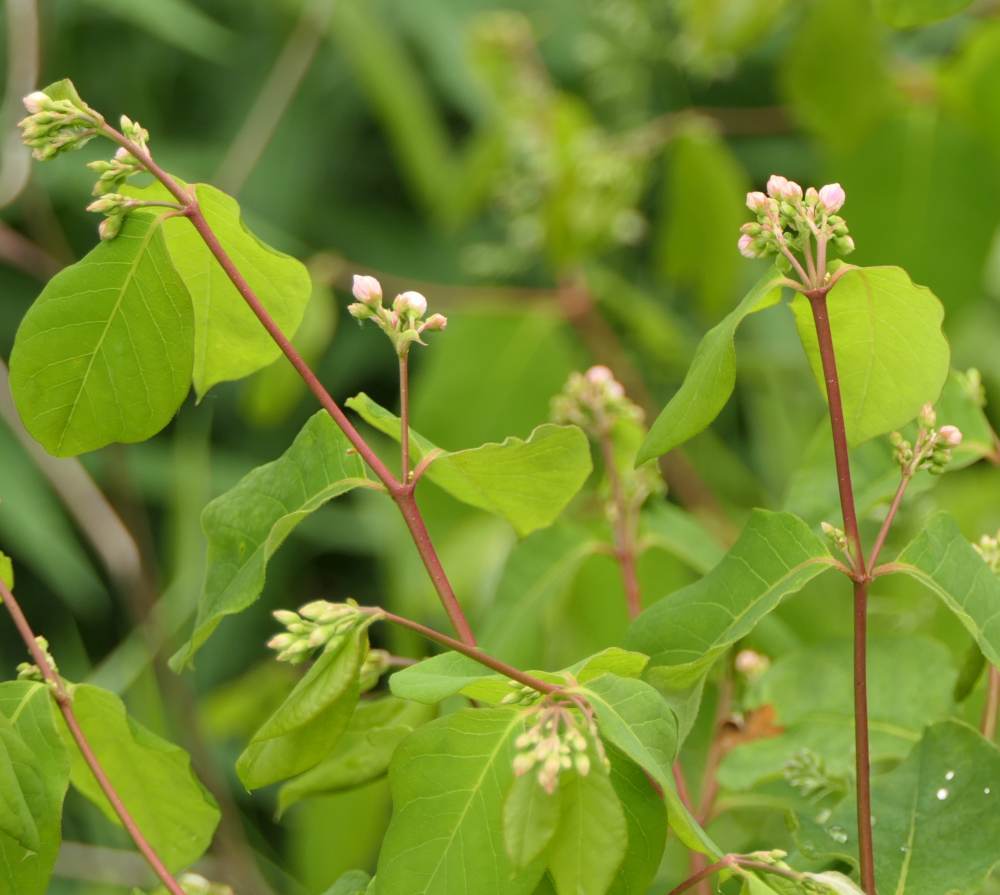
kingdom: Plantae
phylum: Tracheophyta
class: Magnoliopsida
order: Gentianales
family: Apocynaceae
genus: Apocynum
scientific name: Apocynum androsaemifolium
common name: Spreading dogbane
